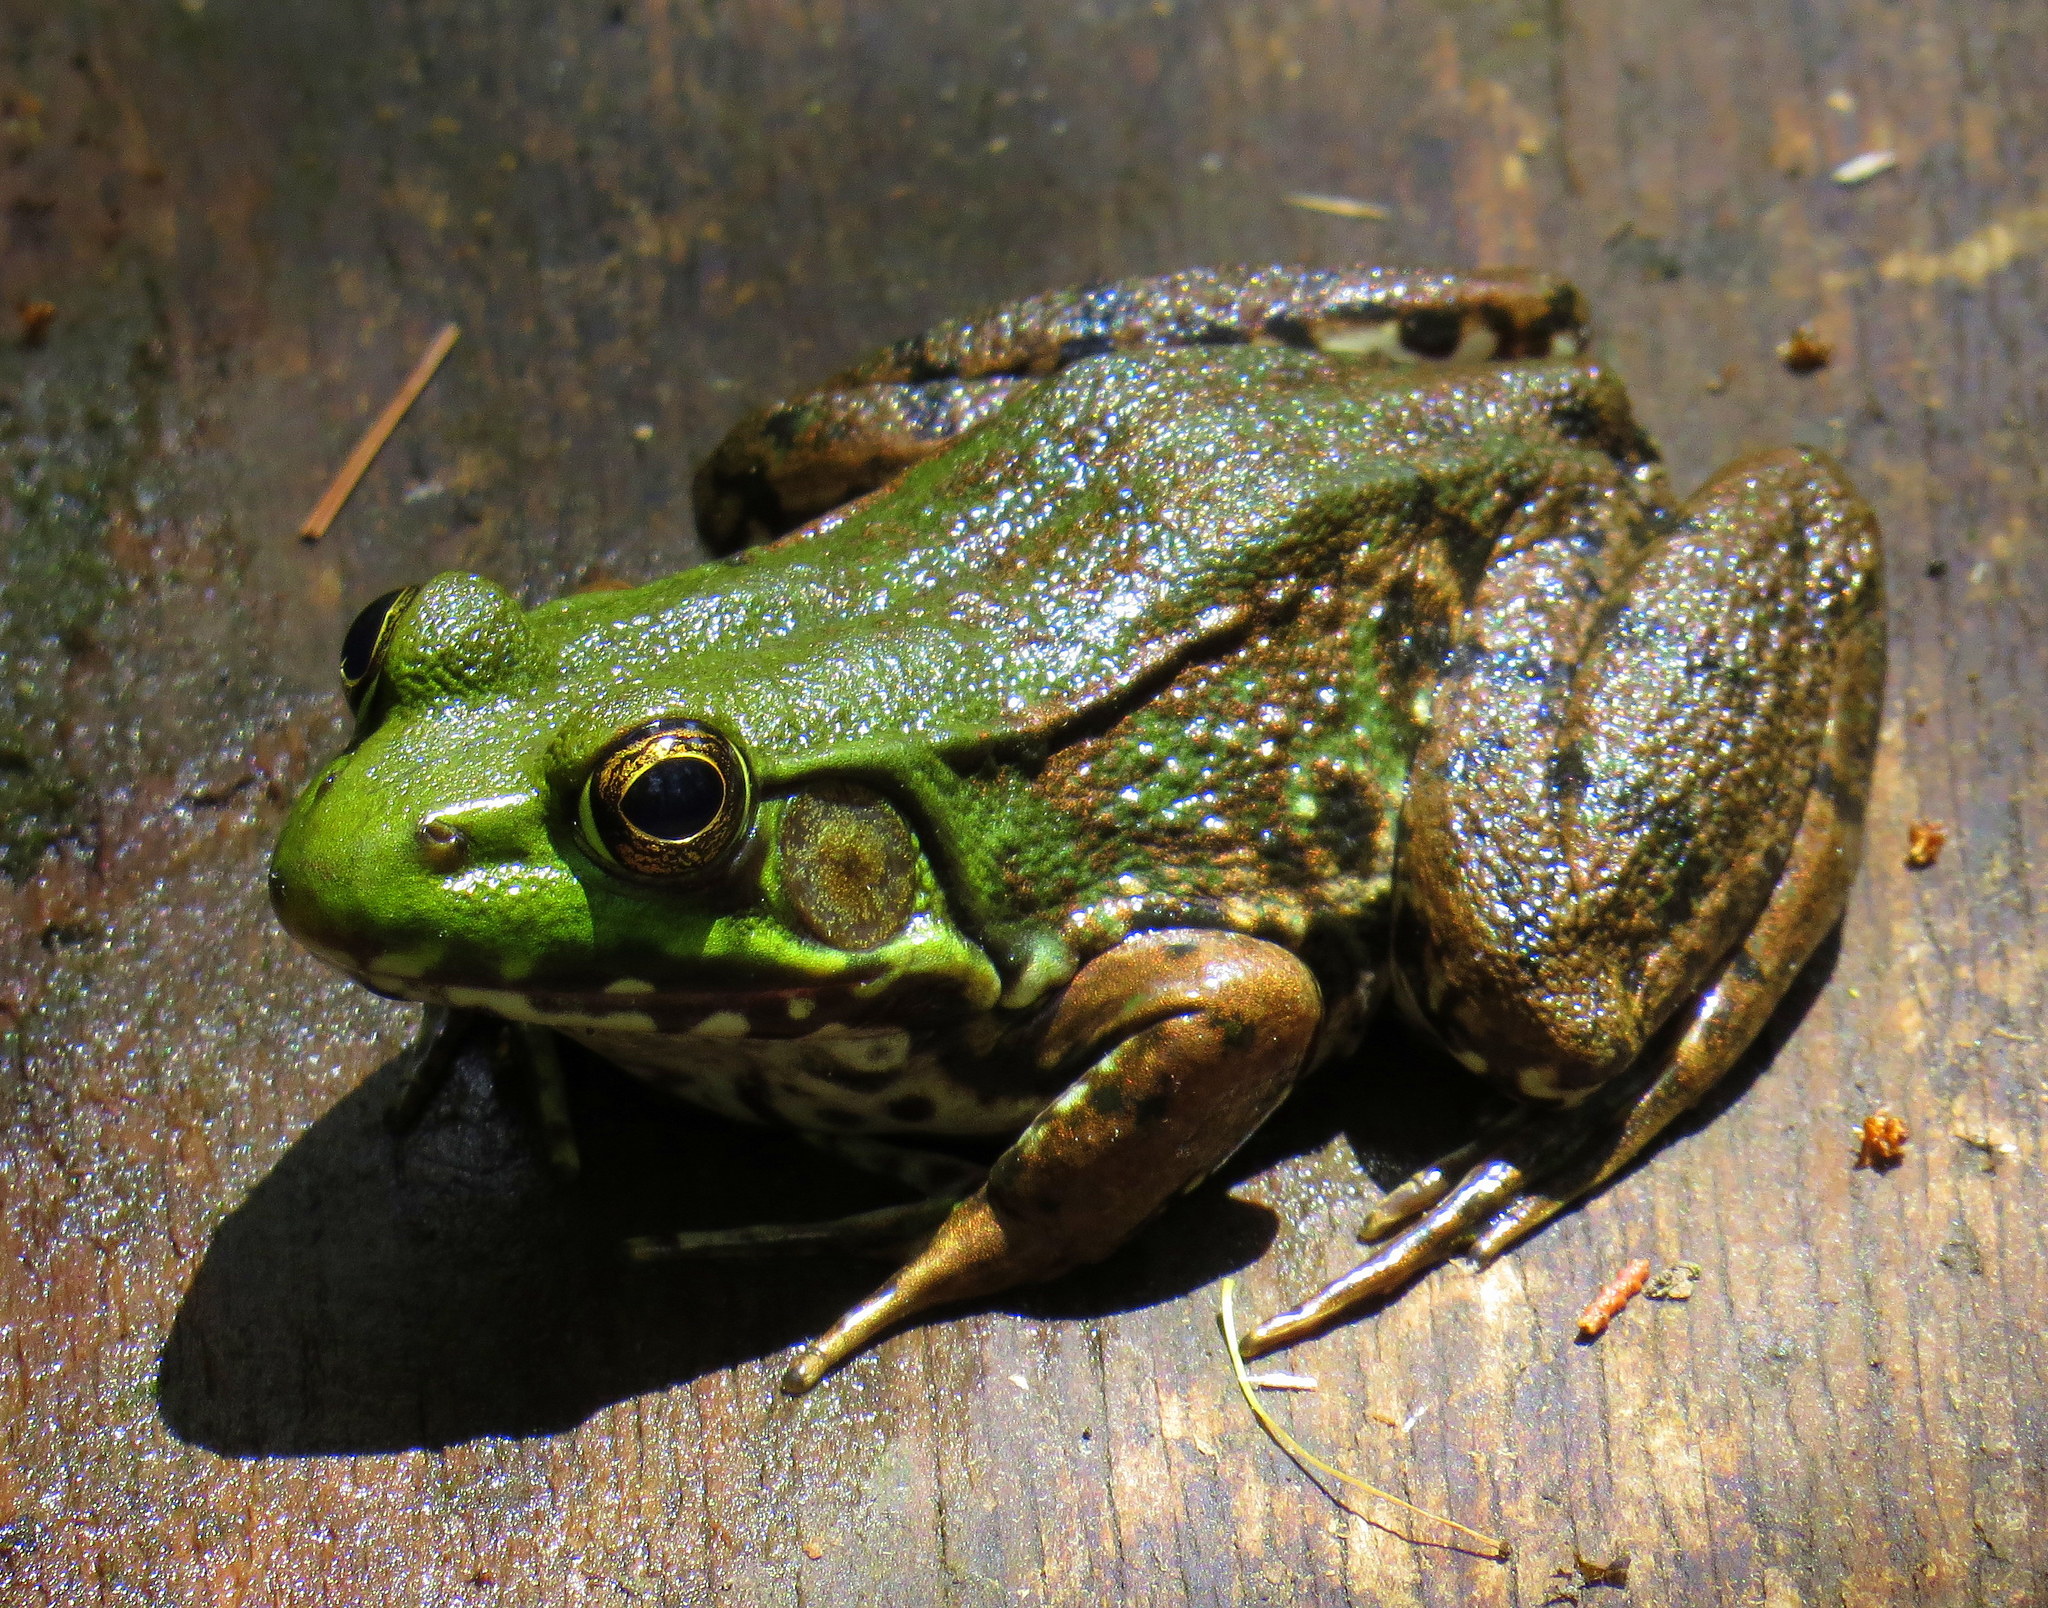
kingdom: Animalia
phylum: Chordata
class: Amphibia
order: Anura
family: Ranidae
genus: Lithobates
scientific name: Lithobates clamitans
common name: Green frog
